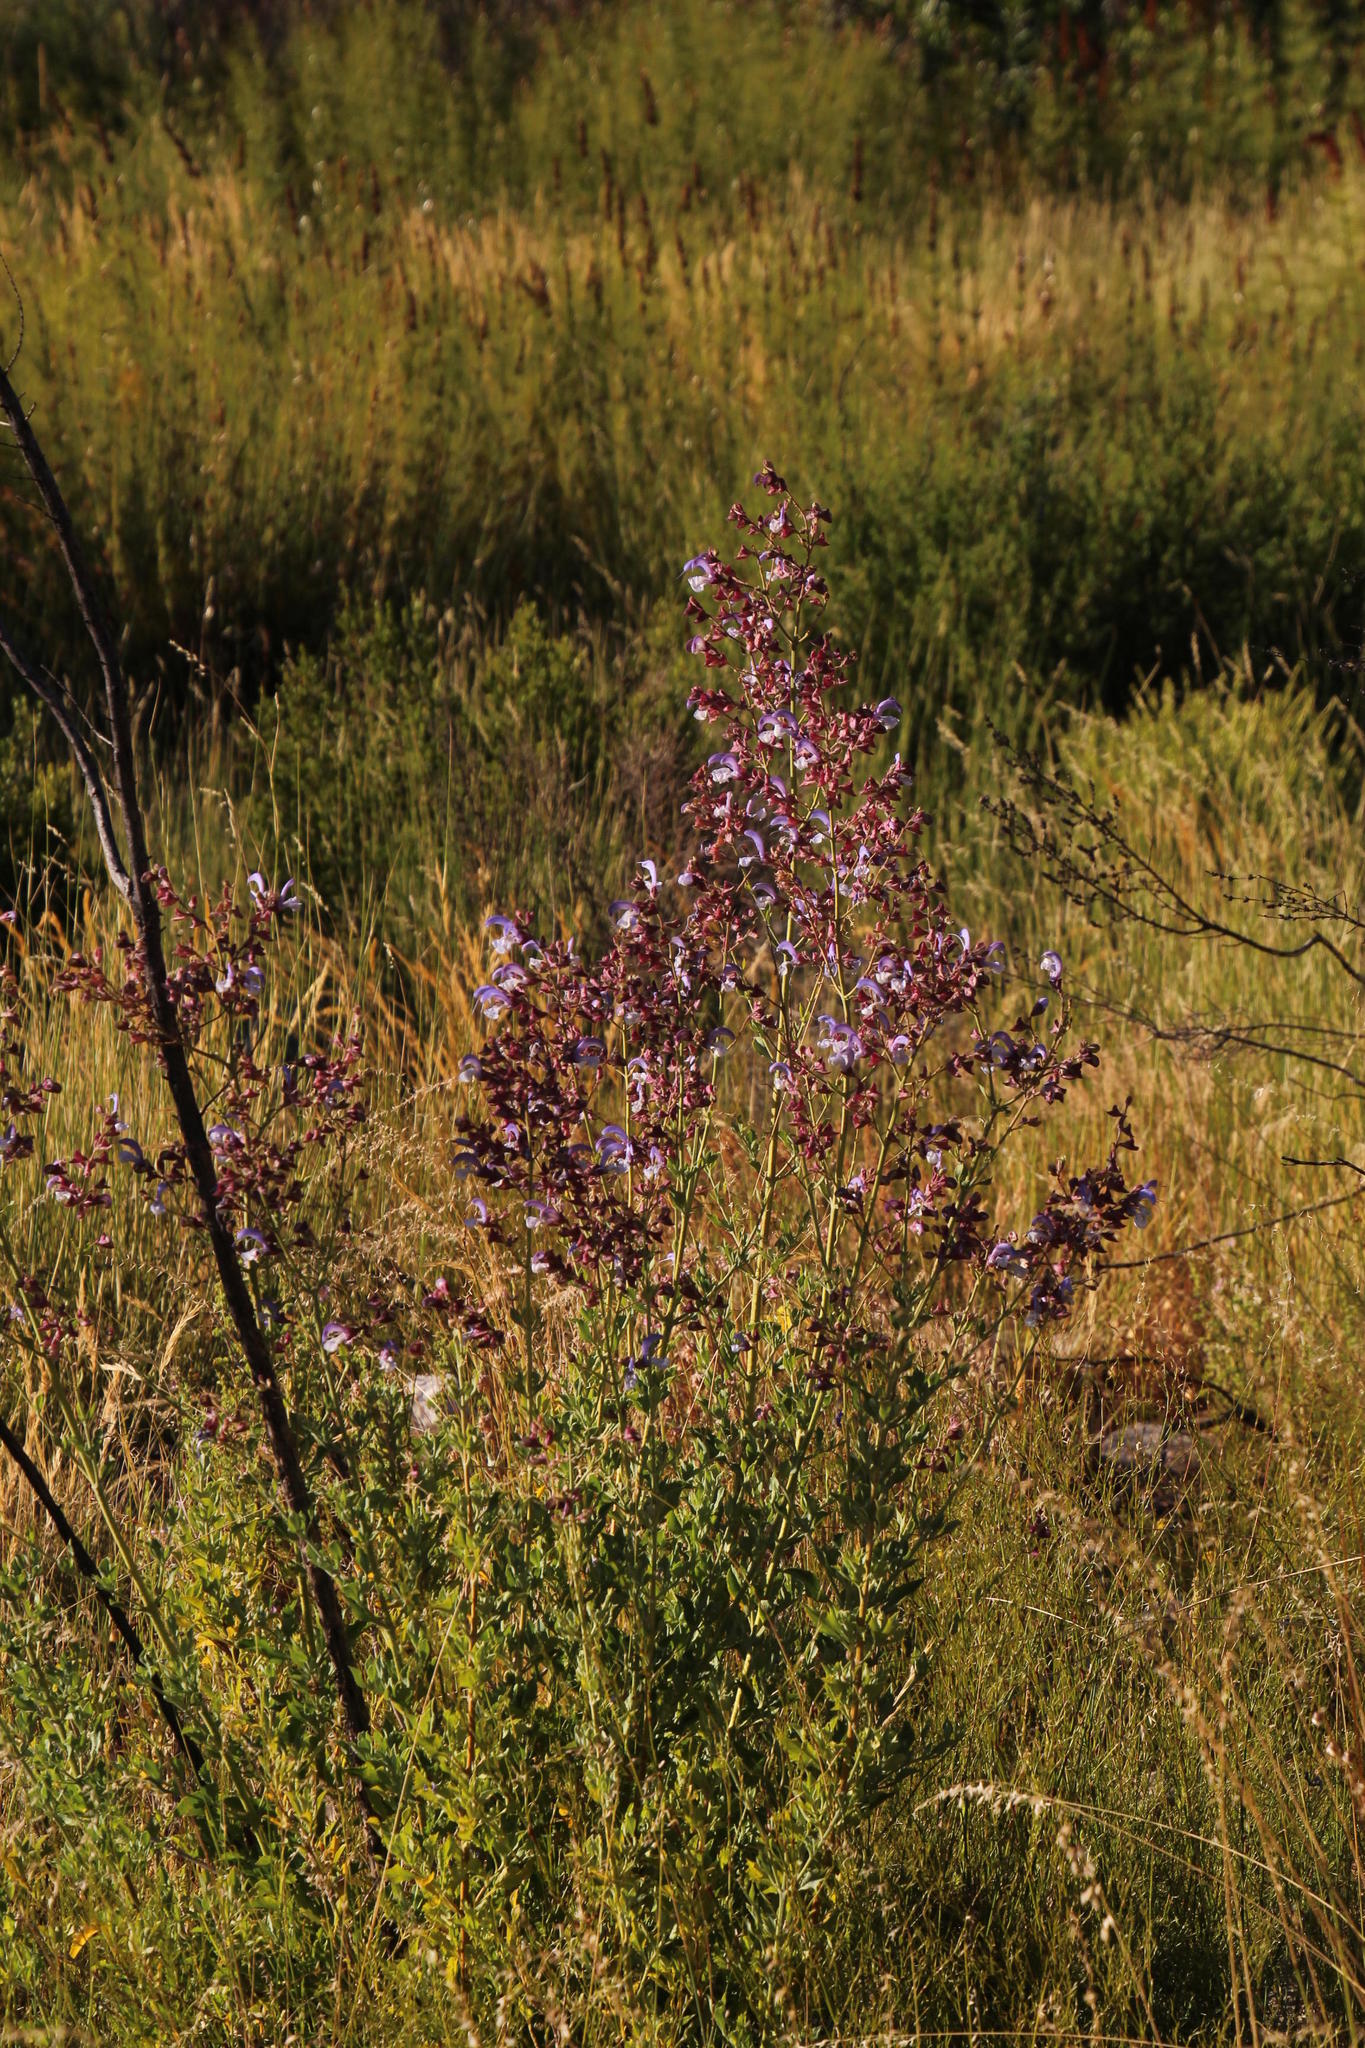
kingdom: Plantae
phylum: Tracheophyta
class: Magnoliopsida
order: Lamiales
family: Lamiaceae
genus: Salvia
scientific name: Salvia chamelaeagnea
